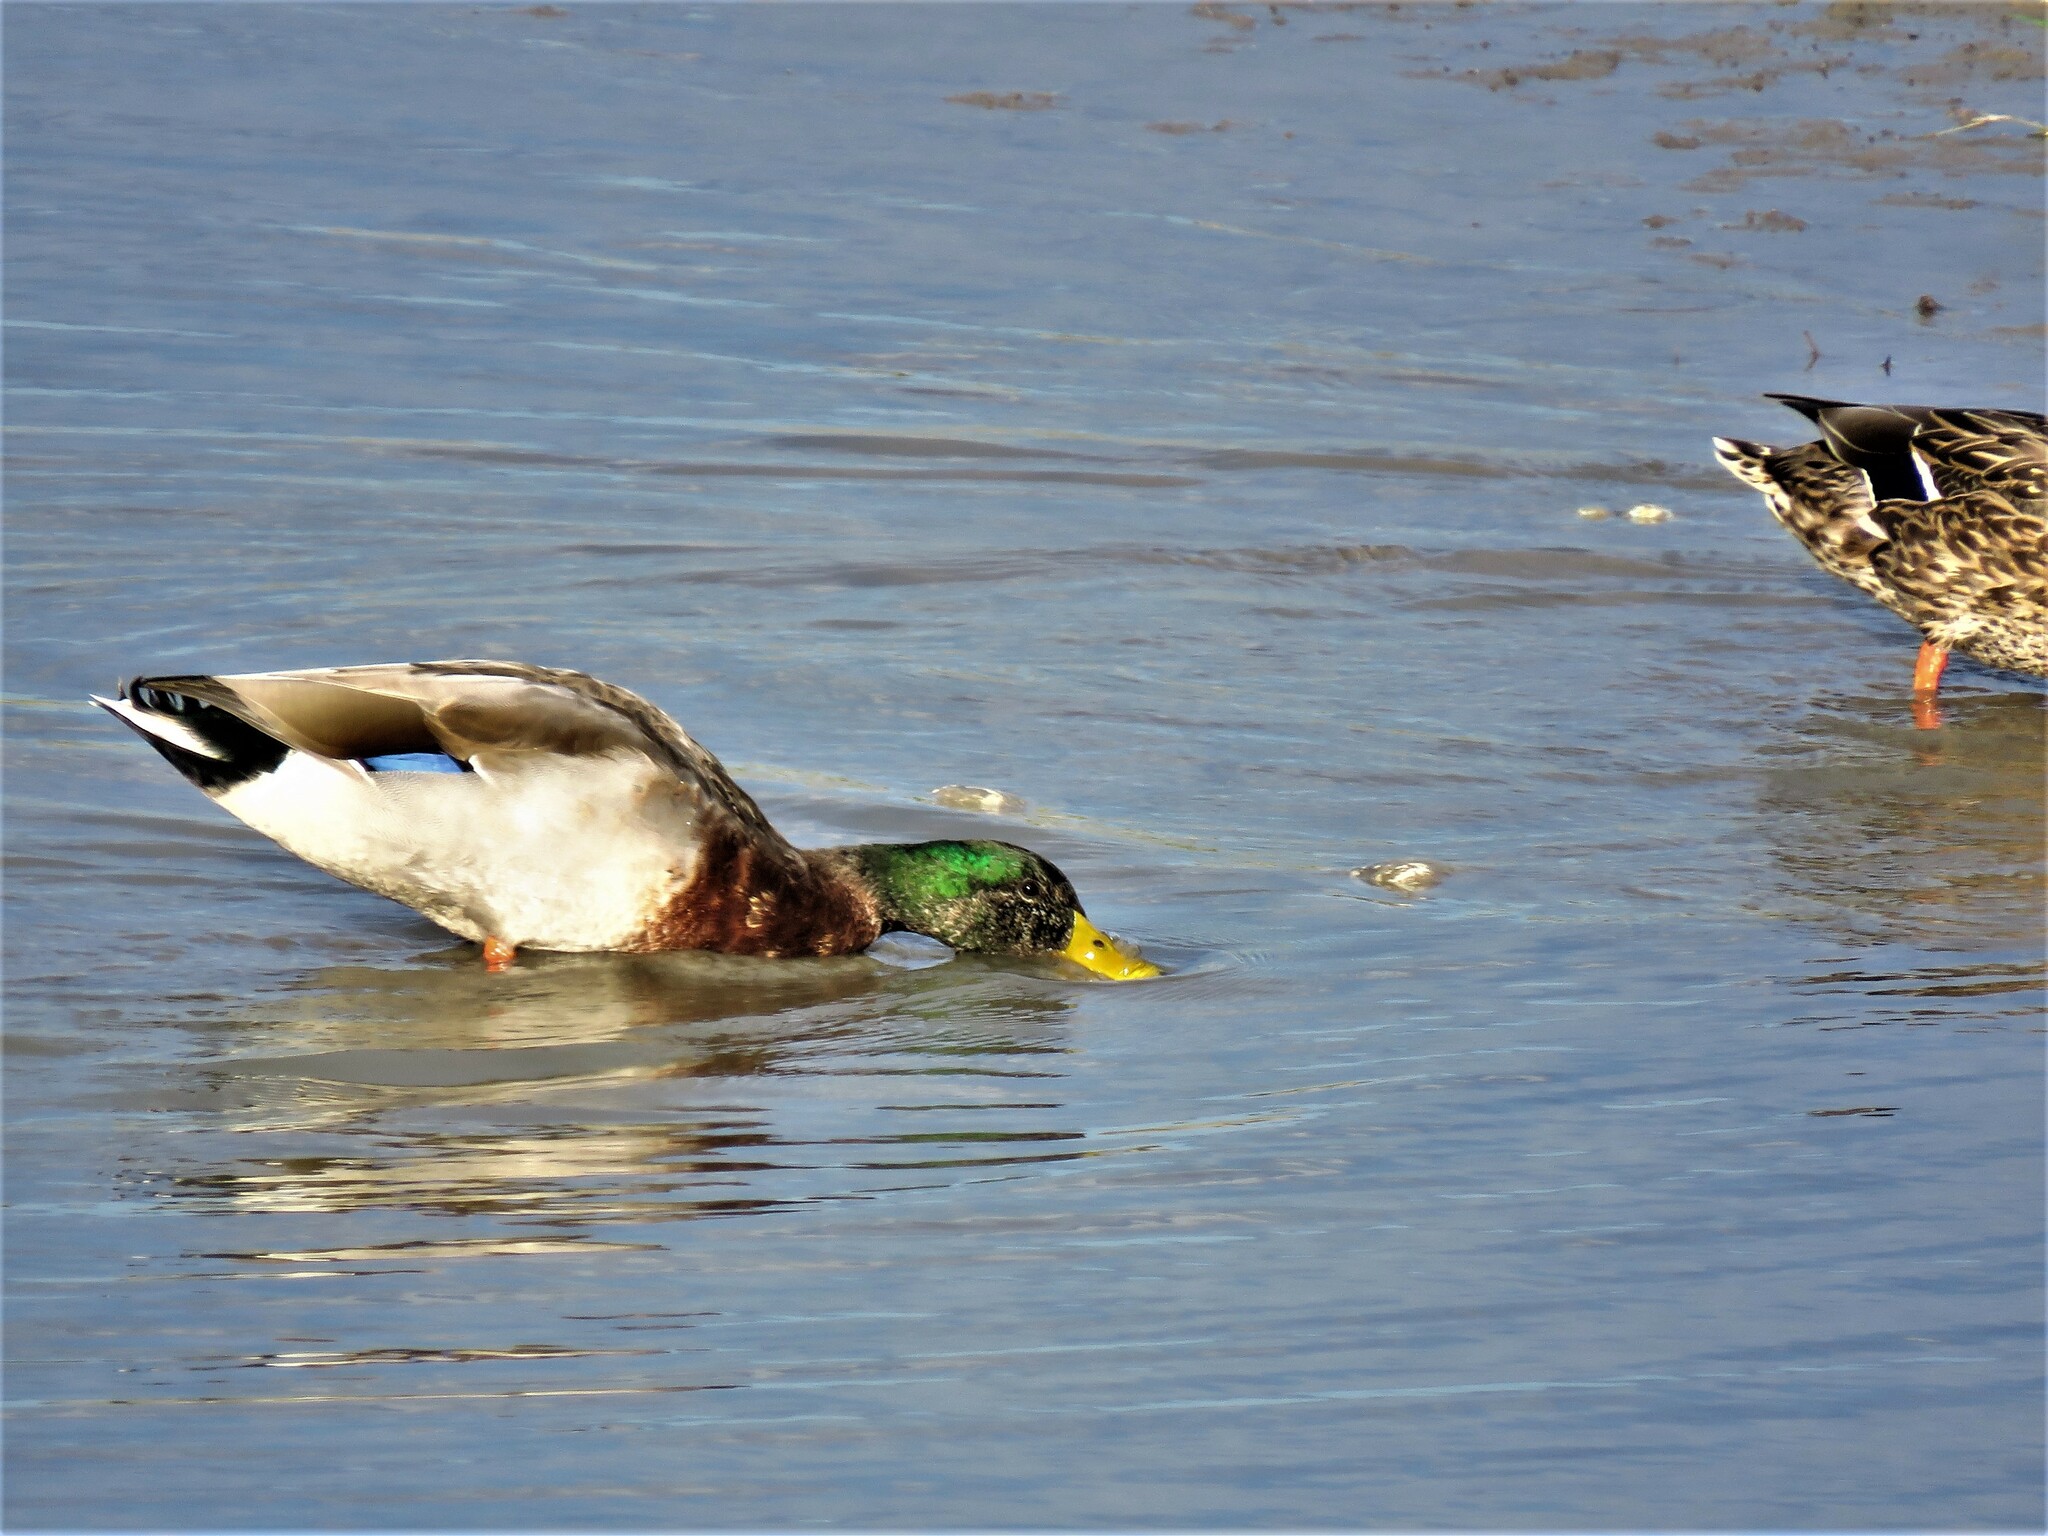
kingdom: Animalia
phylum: Chordata
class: Aves
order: Anseriformes
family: Anatidae
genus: Anas
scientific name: Anas platyrhynchos
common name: Mallard
